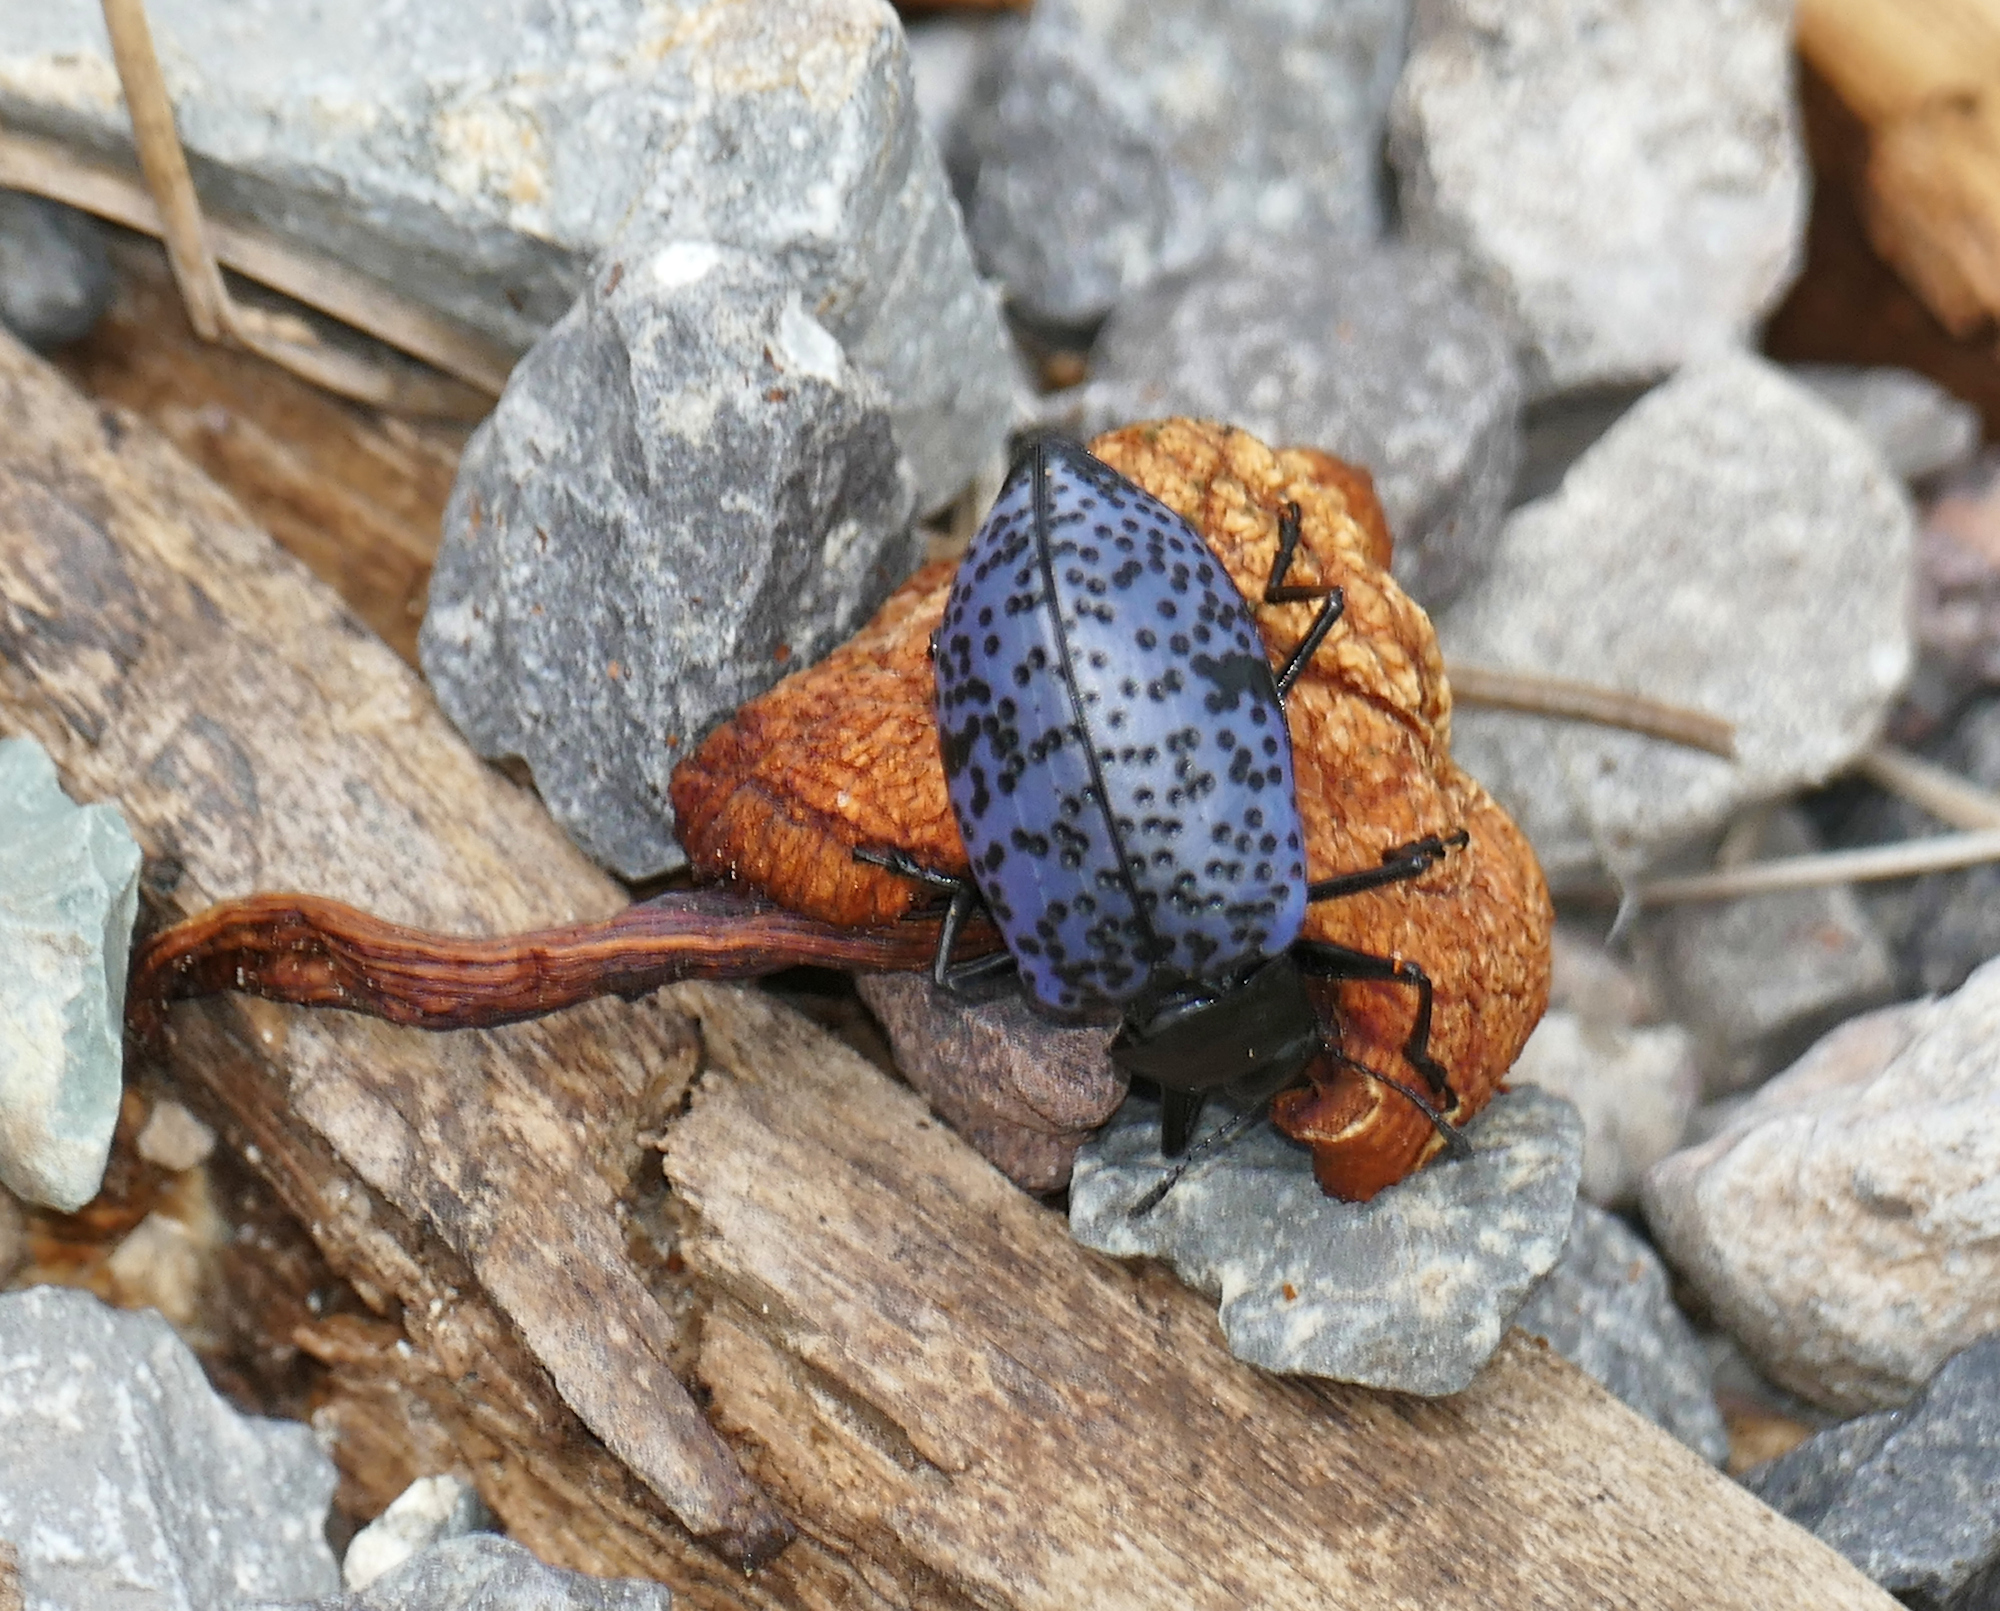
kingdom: Animalia
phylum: Arthropoda
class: Insecta
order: Coleoptera
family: Erotylidae
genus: Gibbifer
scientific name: Gibbifer californicus
